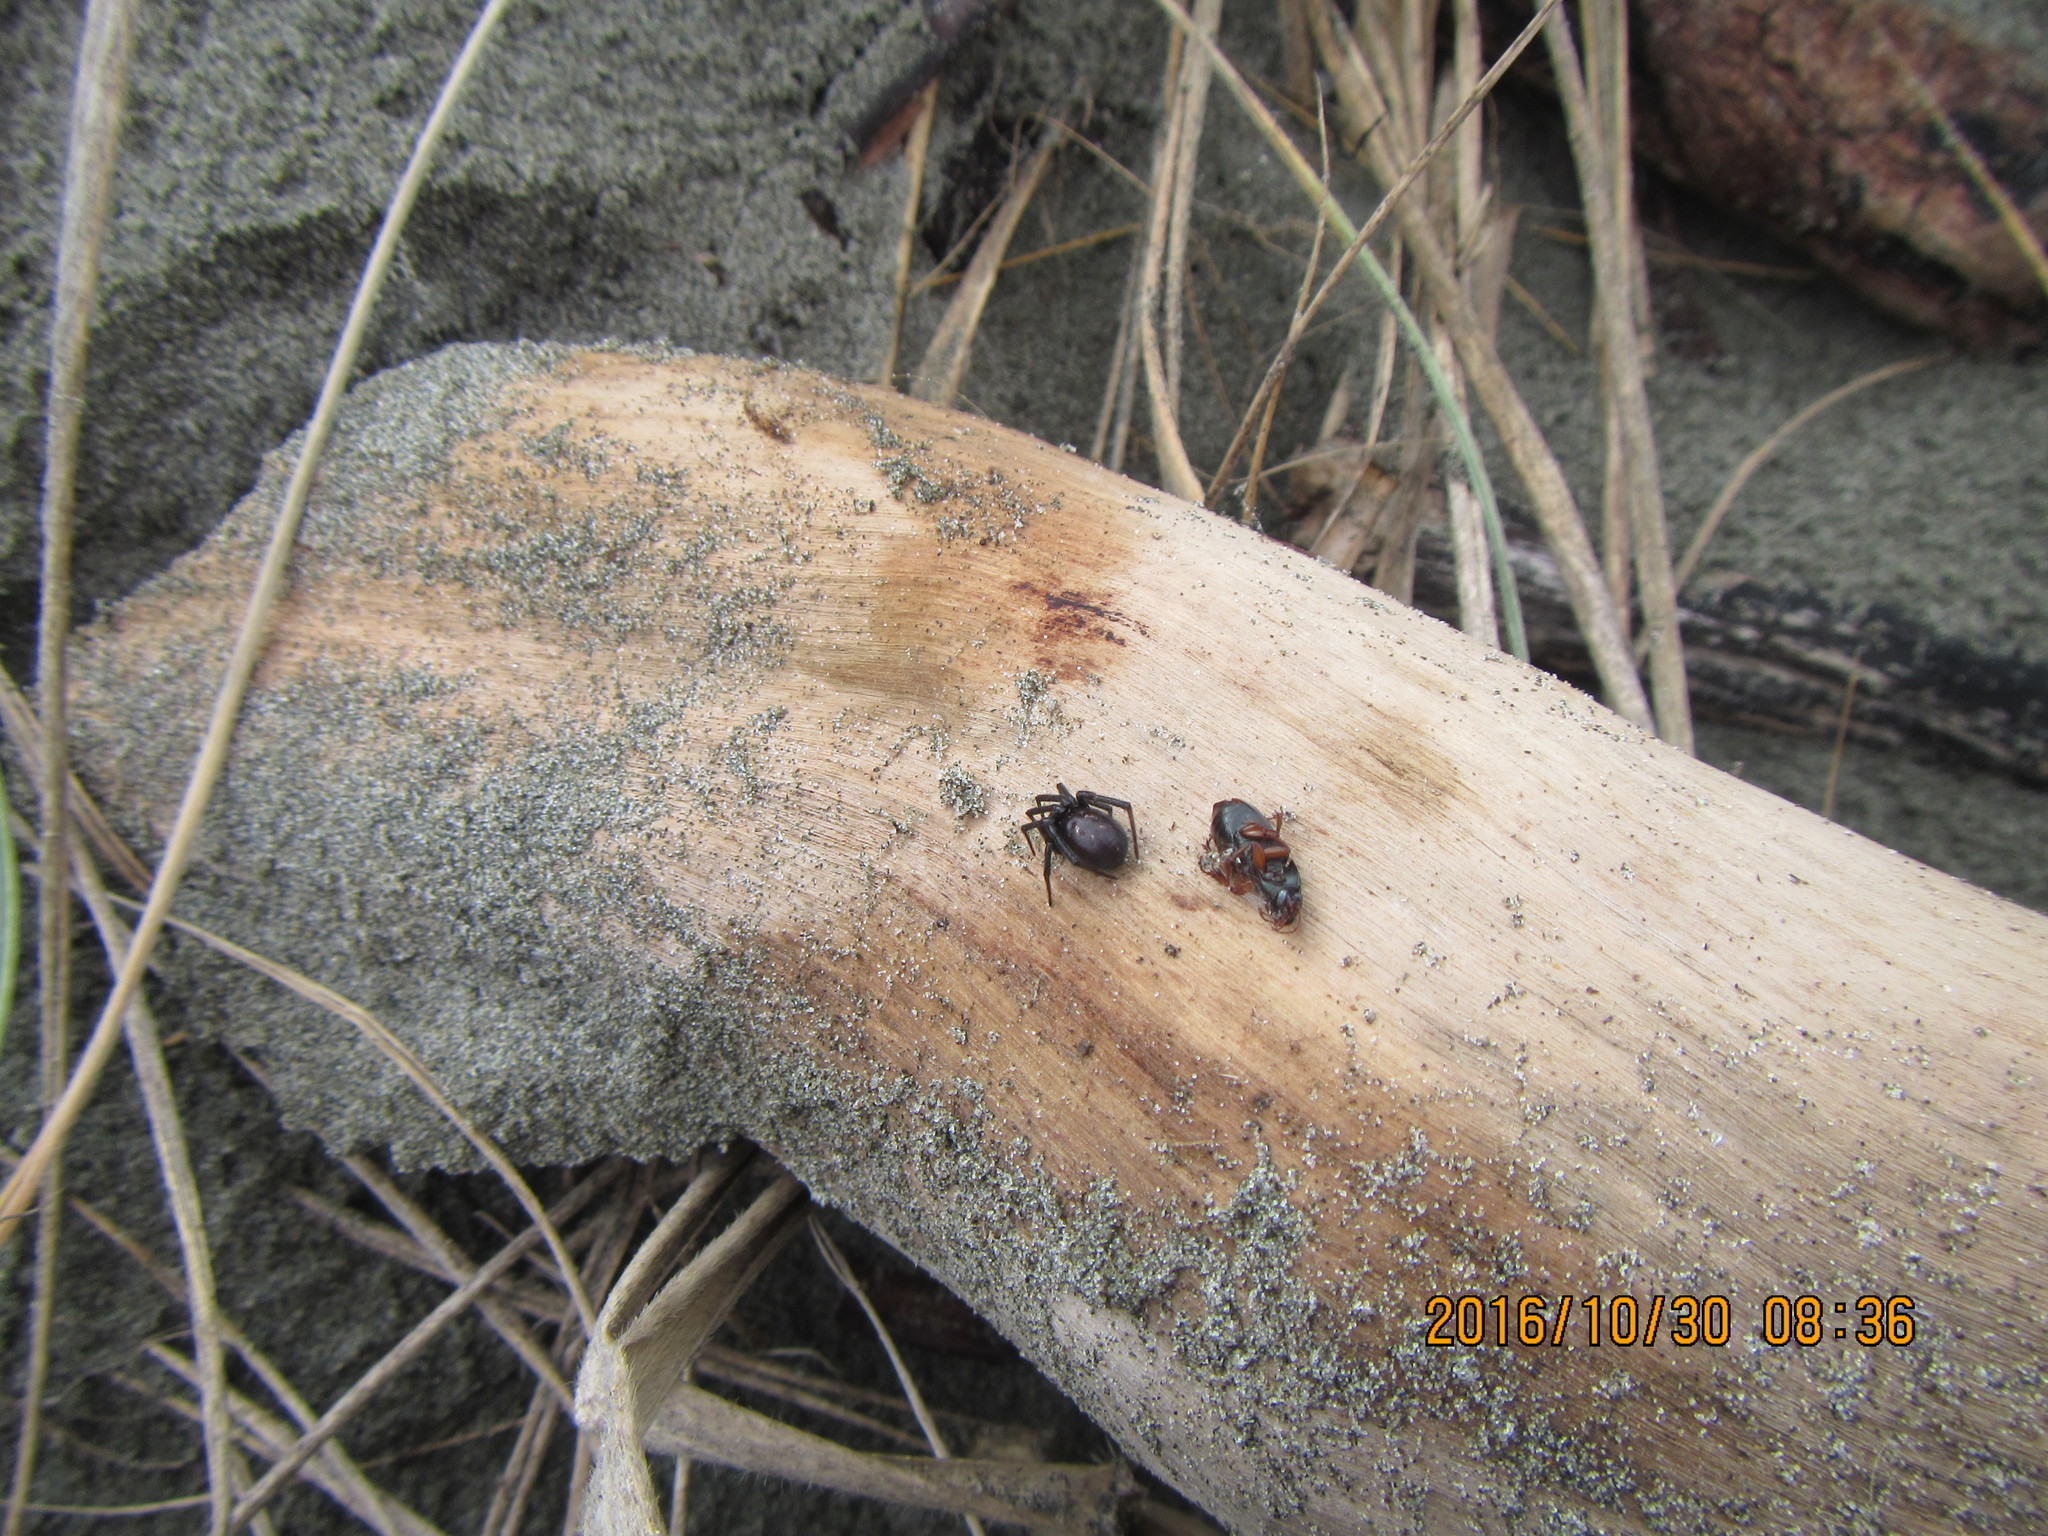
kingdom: Animalia
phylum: Arthropoda
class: Insecta
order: Coleoptera
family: Carabidae
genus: Harpalus
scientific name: Harpalus affinis
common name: Polychrome harp ground beetle
